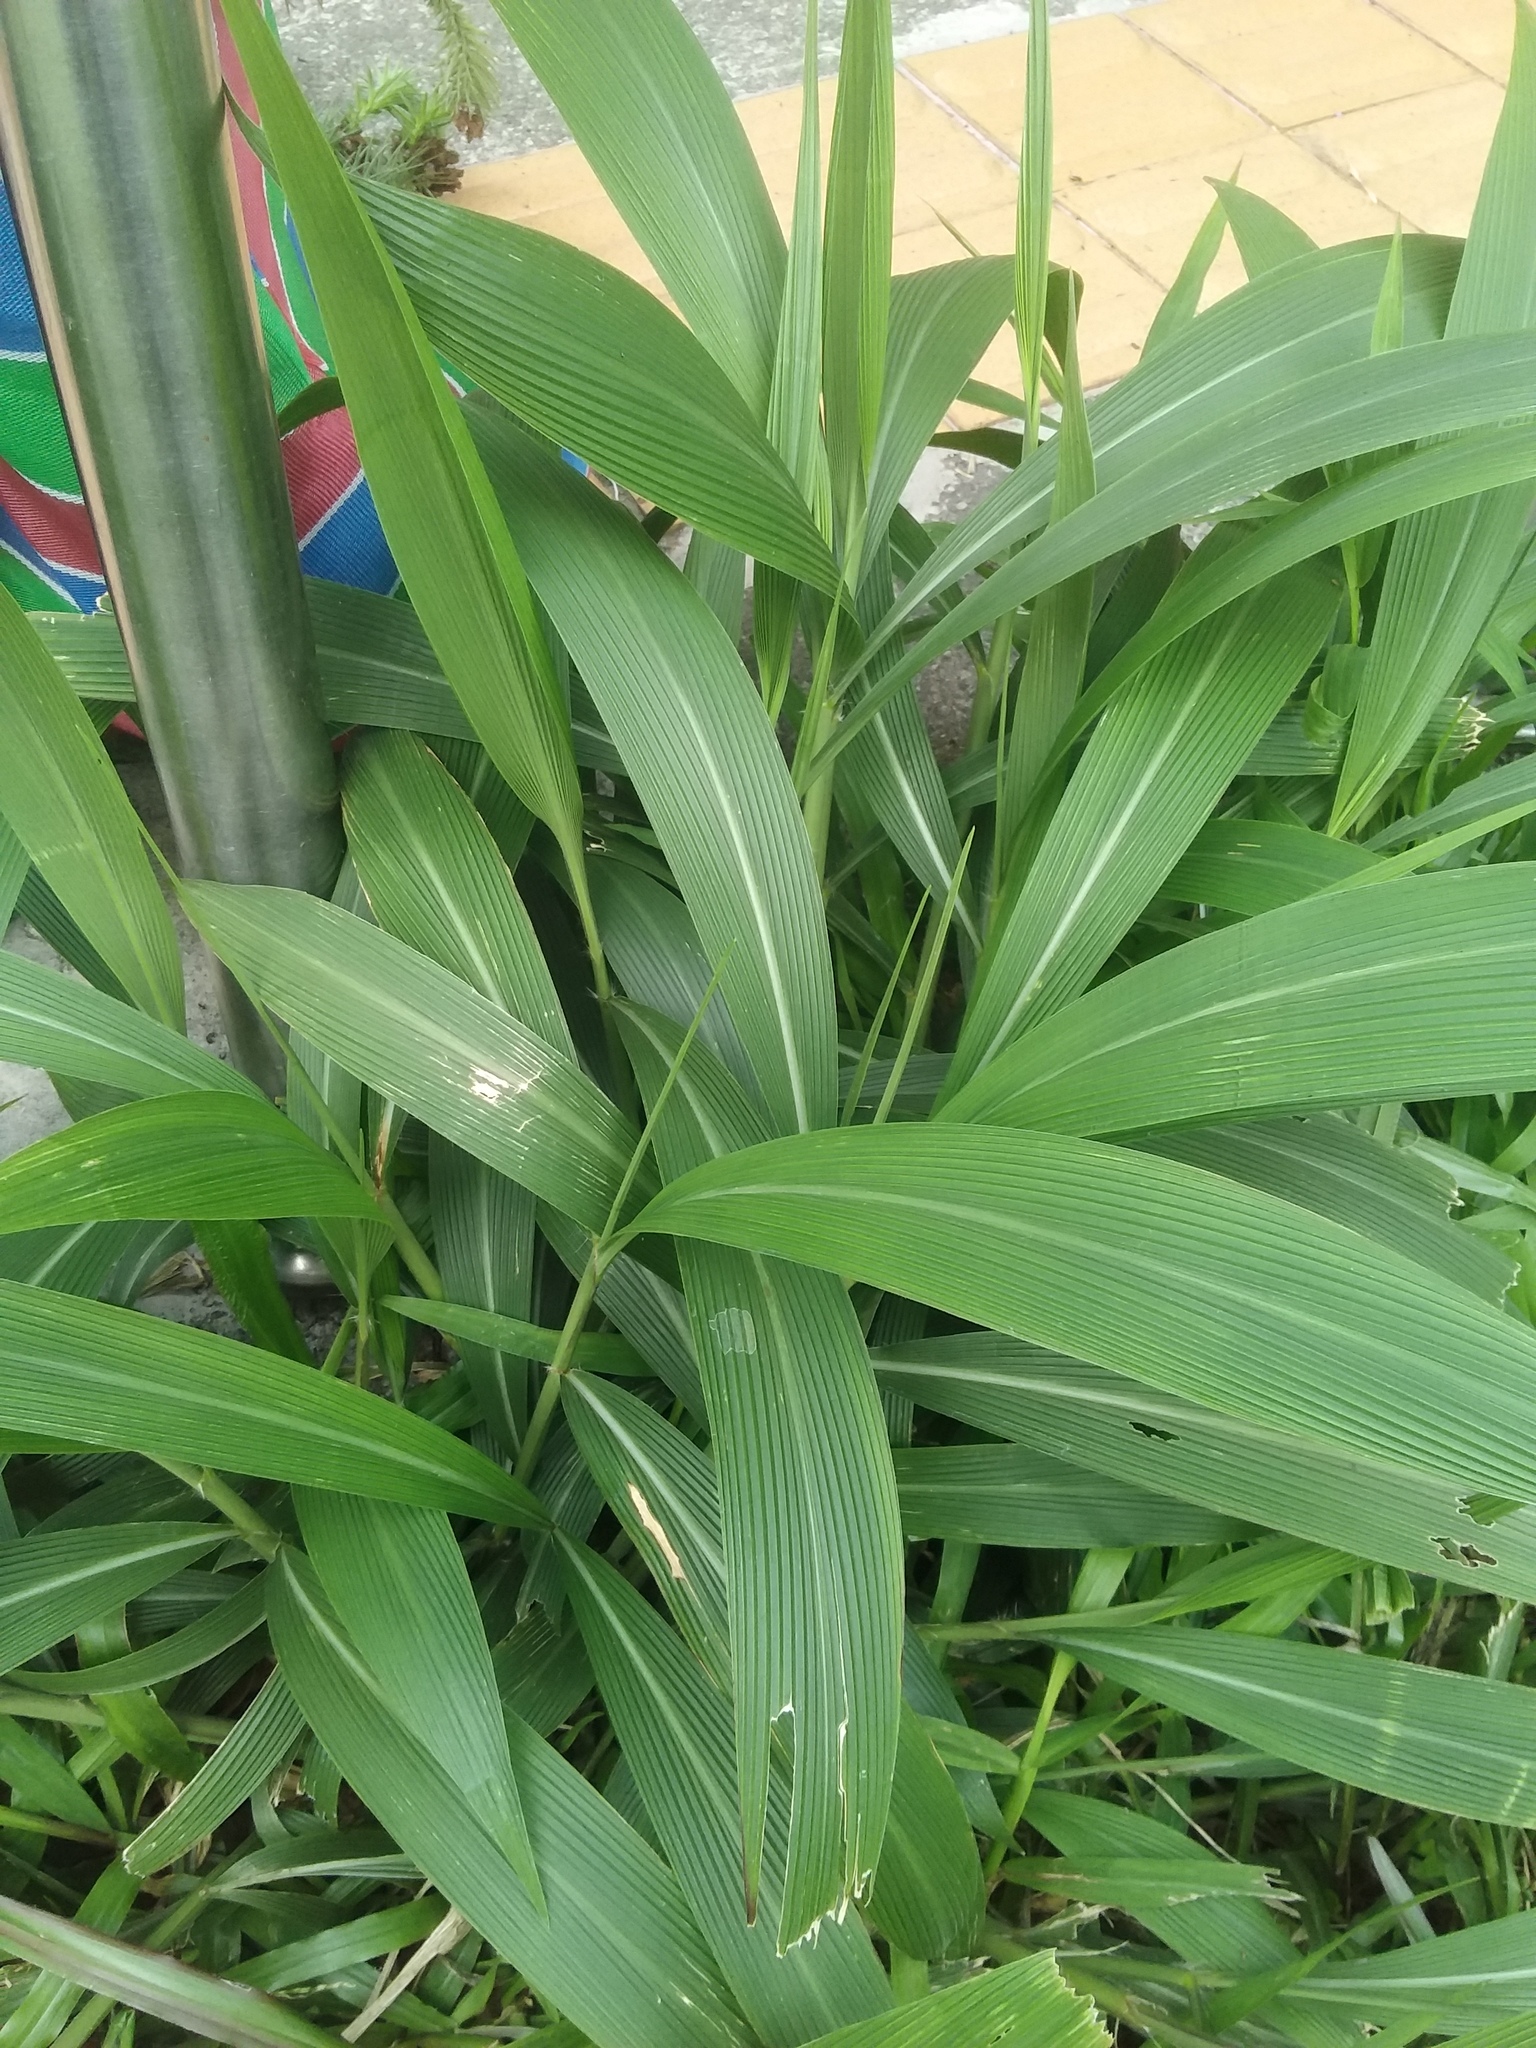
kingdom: Plantae
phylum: Tracheophyta
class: Liliopsida
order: Poales
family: Poaceae
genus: Setaria
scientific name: Setaria palmifolia
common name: Broadleaved bristlegrass
